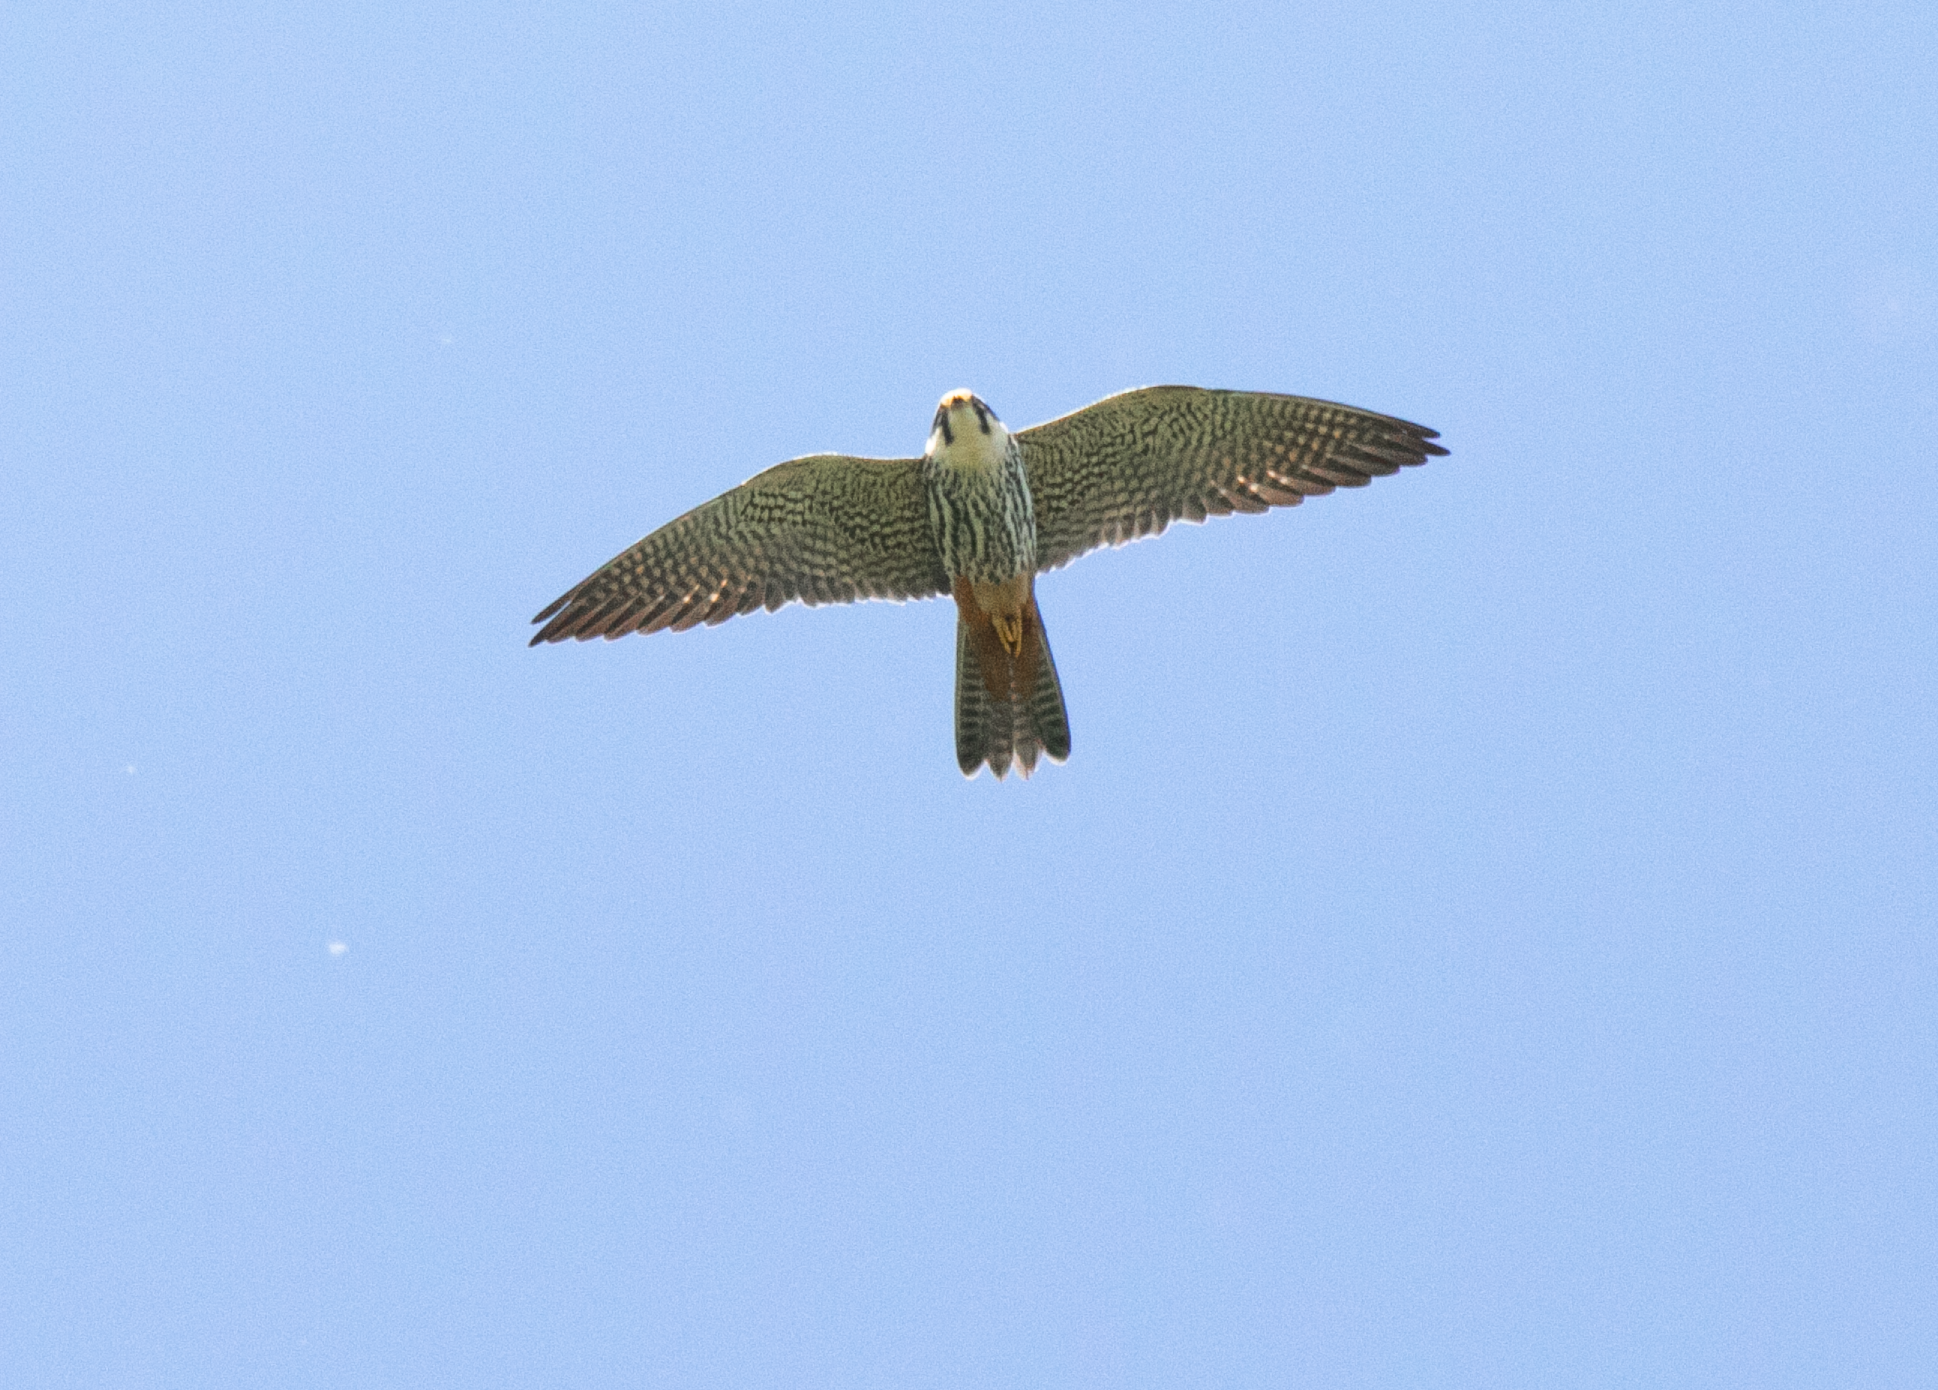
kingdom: Animalia
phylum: Chordata
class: Aves
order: Falconiformes
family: Falconidae
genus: Falco
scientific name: Falco subbuteo
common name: Eurasian hobby
